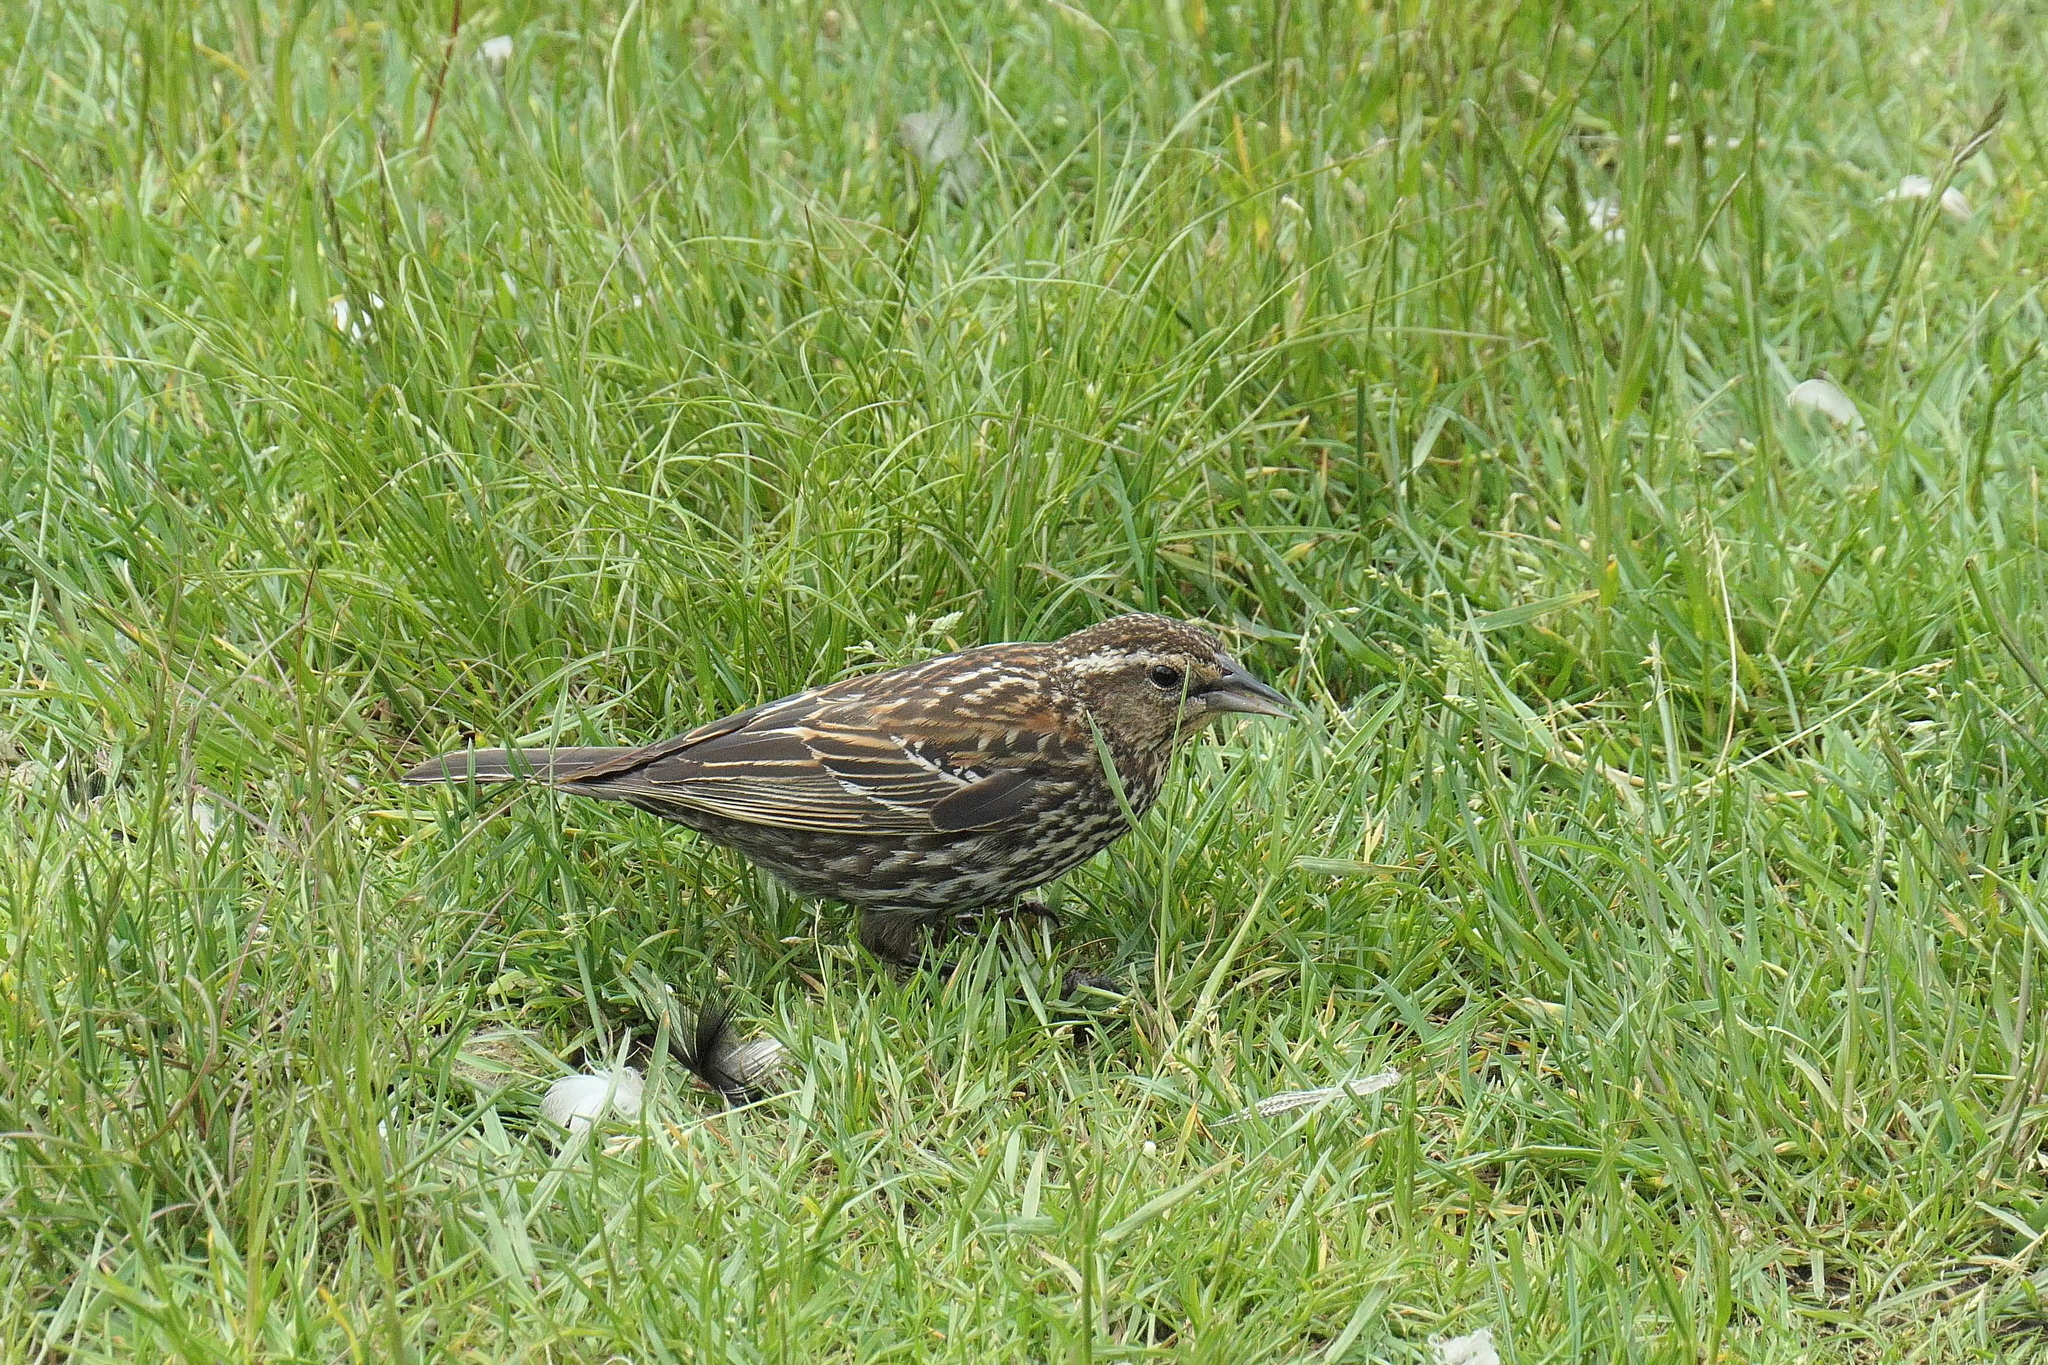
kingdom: Animalia
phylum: Chordata
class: Aves
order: Passeriformes
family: Icteridae
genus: Agelaius
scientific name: Agelaius phoeniceus
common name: Red-winged blackbird
